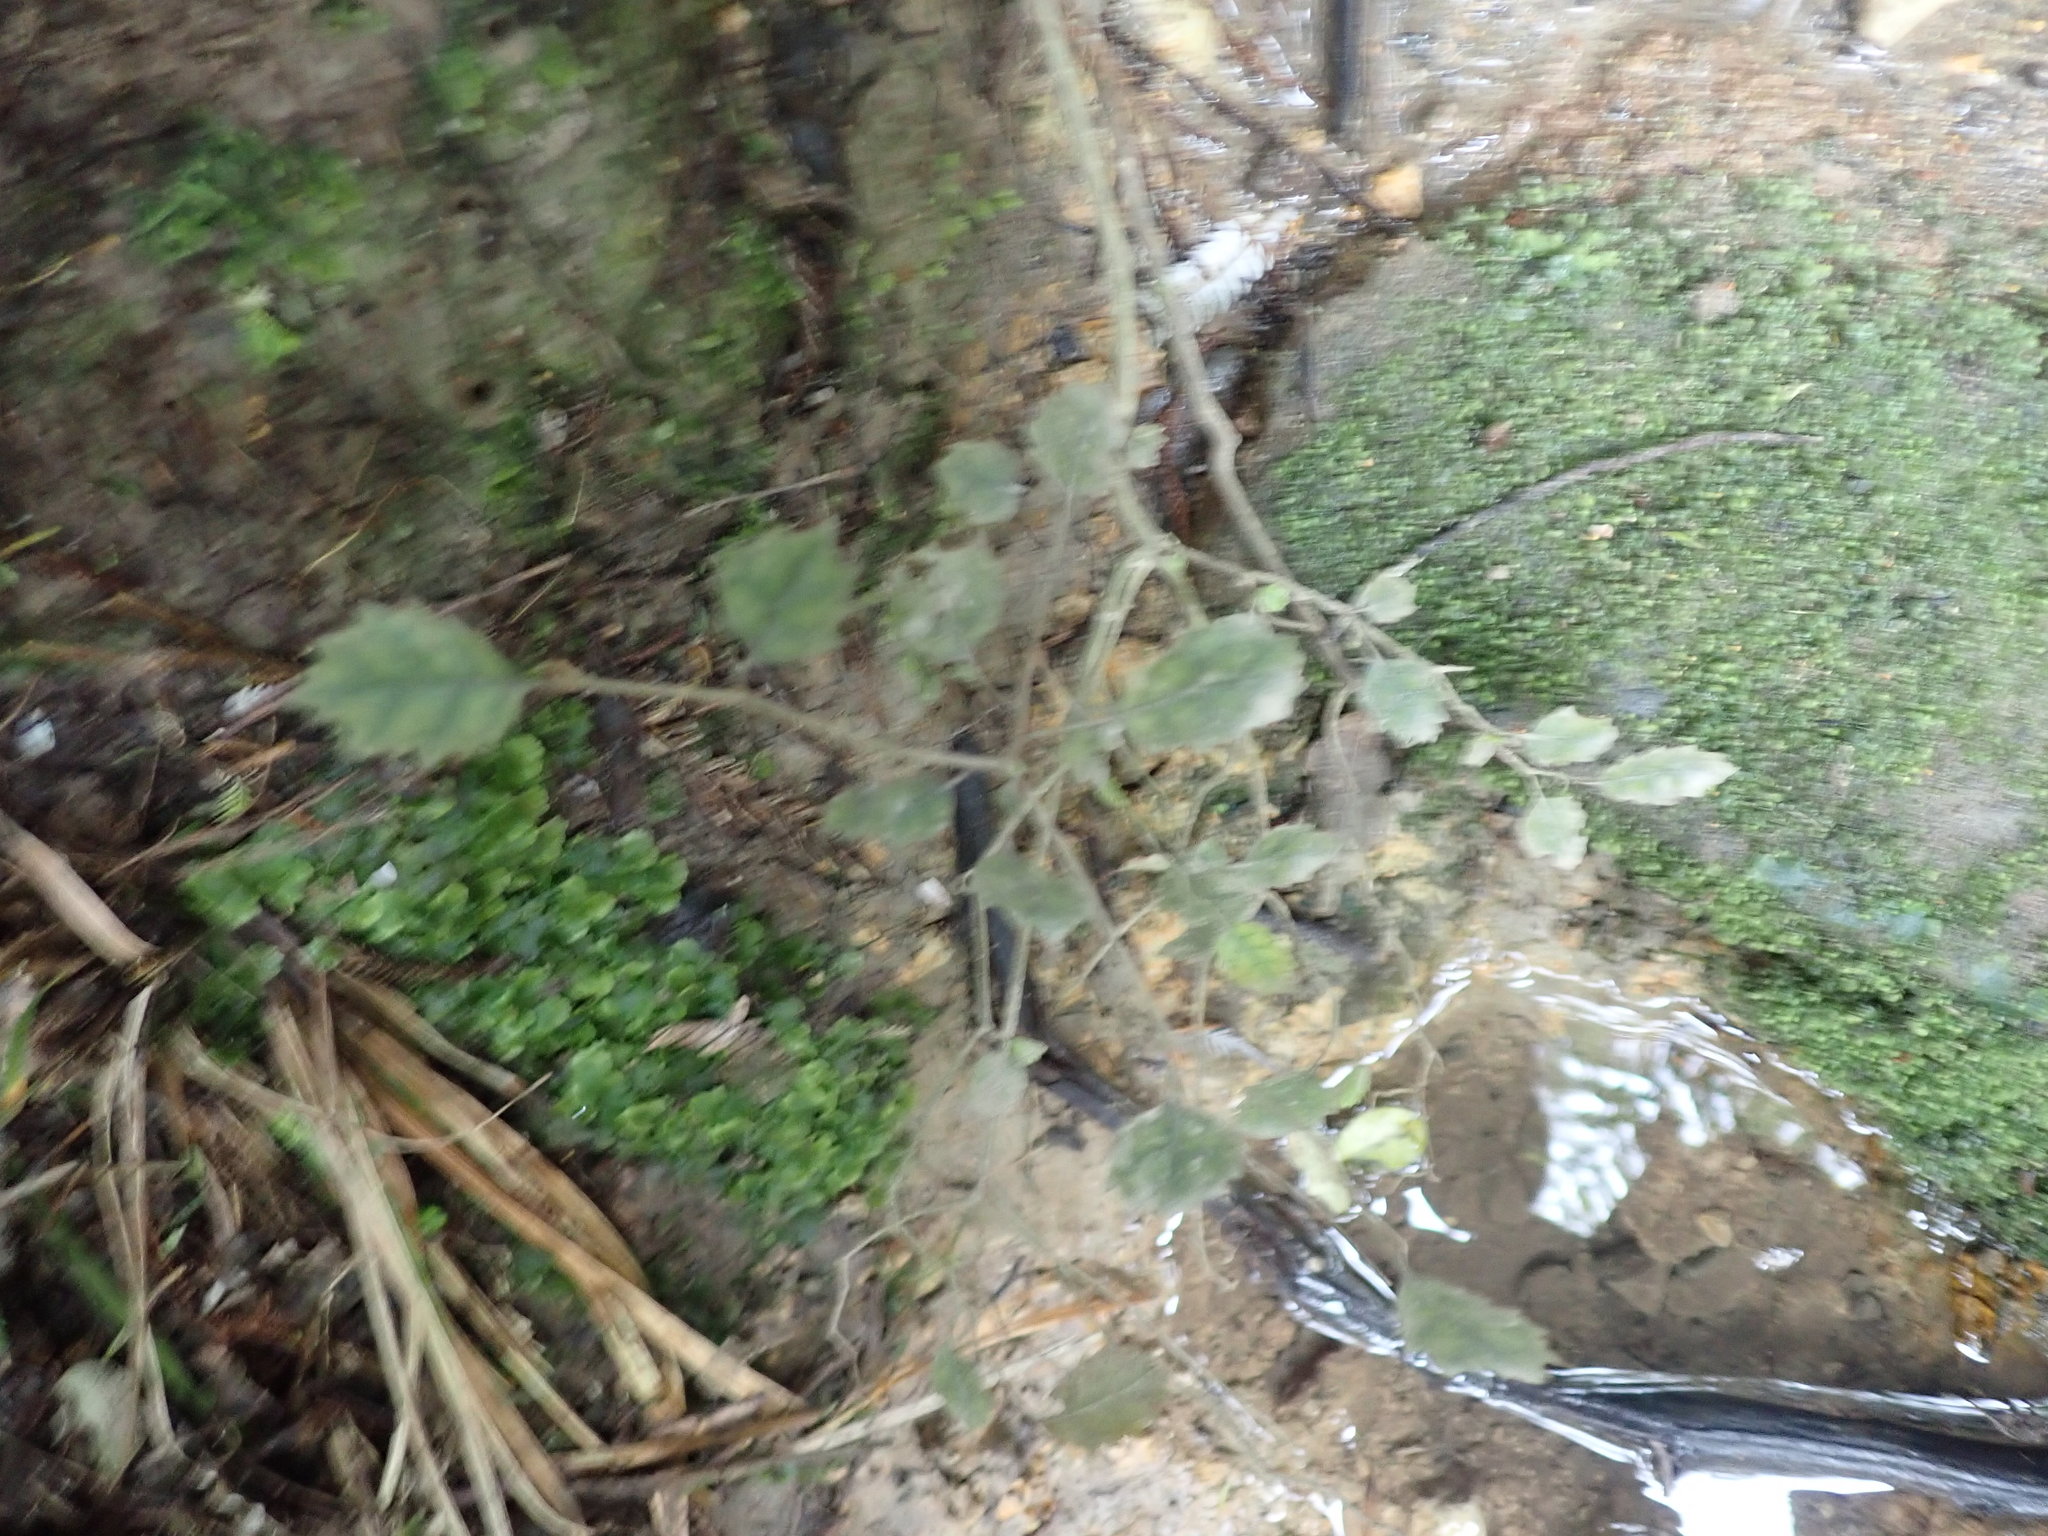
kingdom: Plantae
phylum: Tracheophyta
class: Magnoliopsida
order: Asterales
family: Rousseaceae
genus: Carpodetus
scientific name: Carpodetus serratus
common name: White mapau
